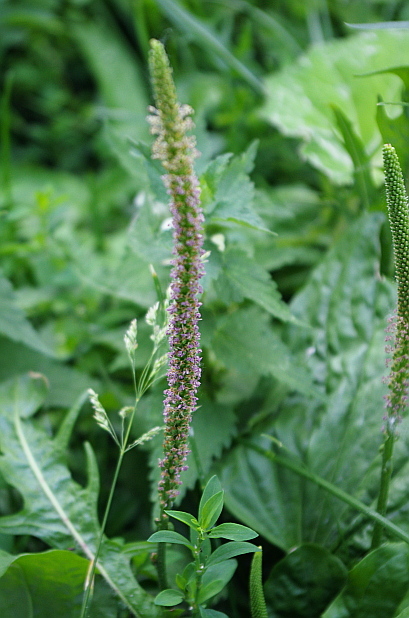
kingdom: Plantae
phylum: Tracheophyta
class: Magnoliopsida
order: Lamiales
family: Plantaginaceae
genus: Plantago
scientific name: Plantago major
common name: Common plantain
